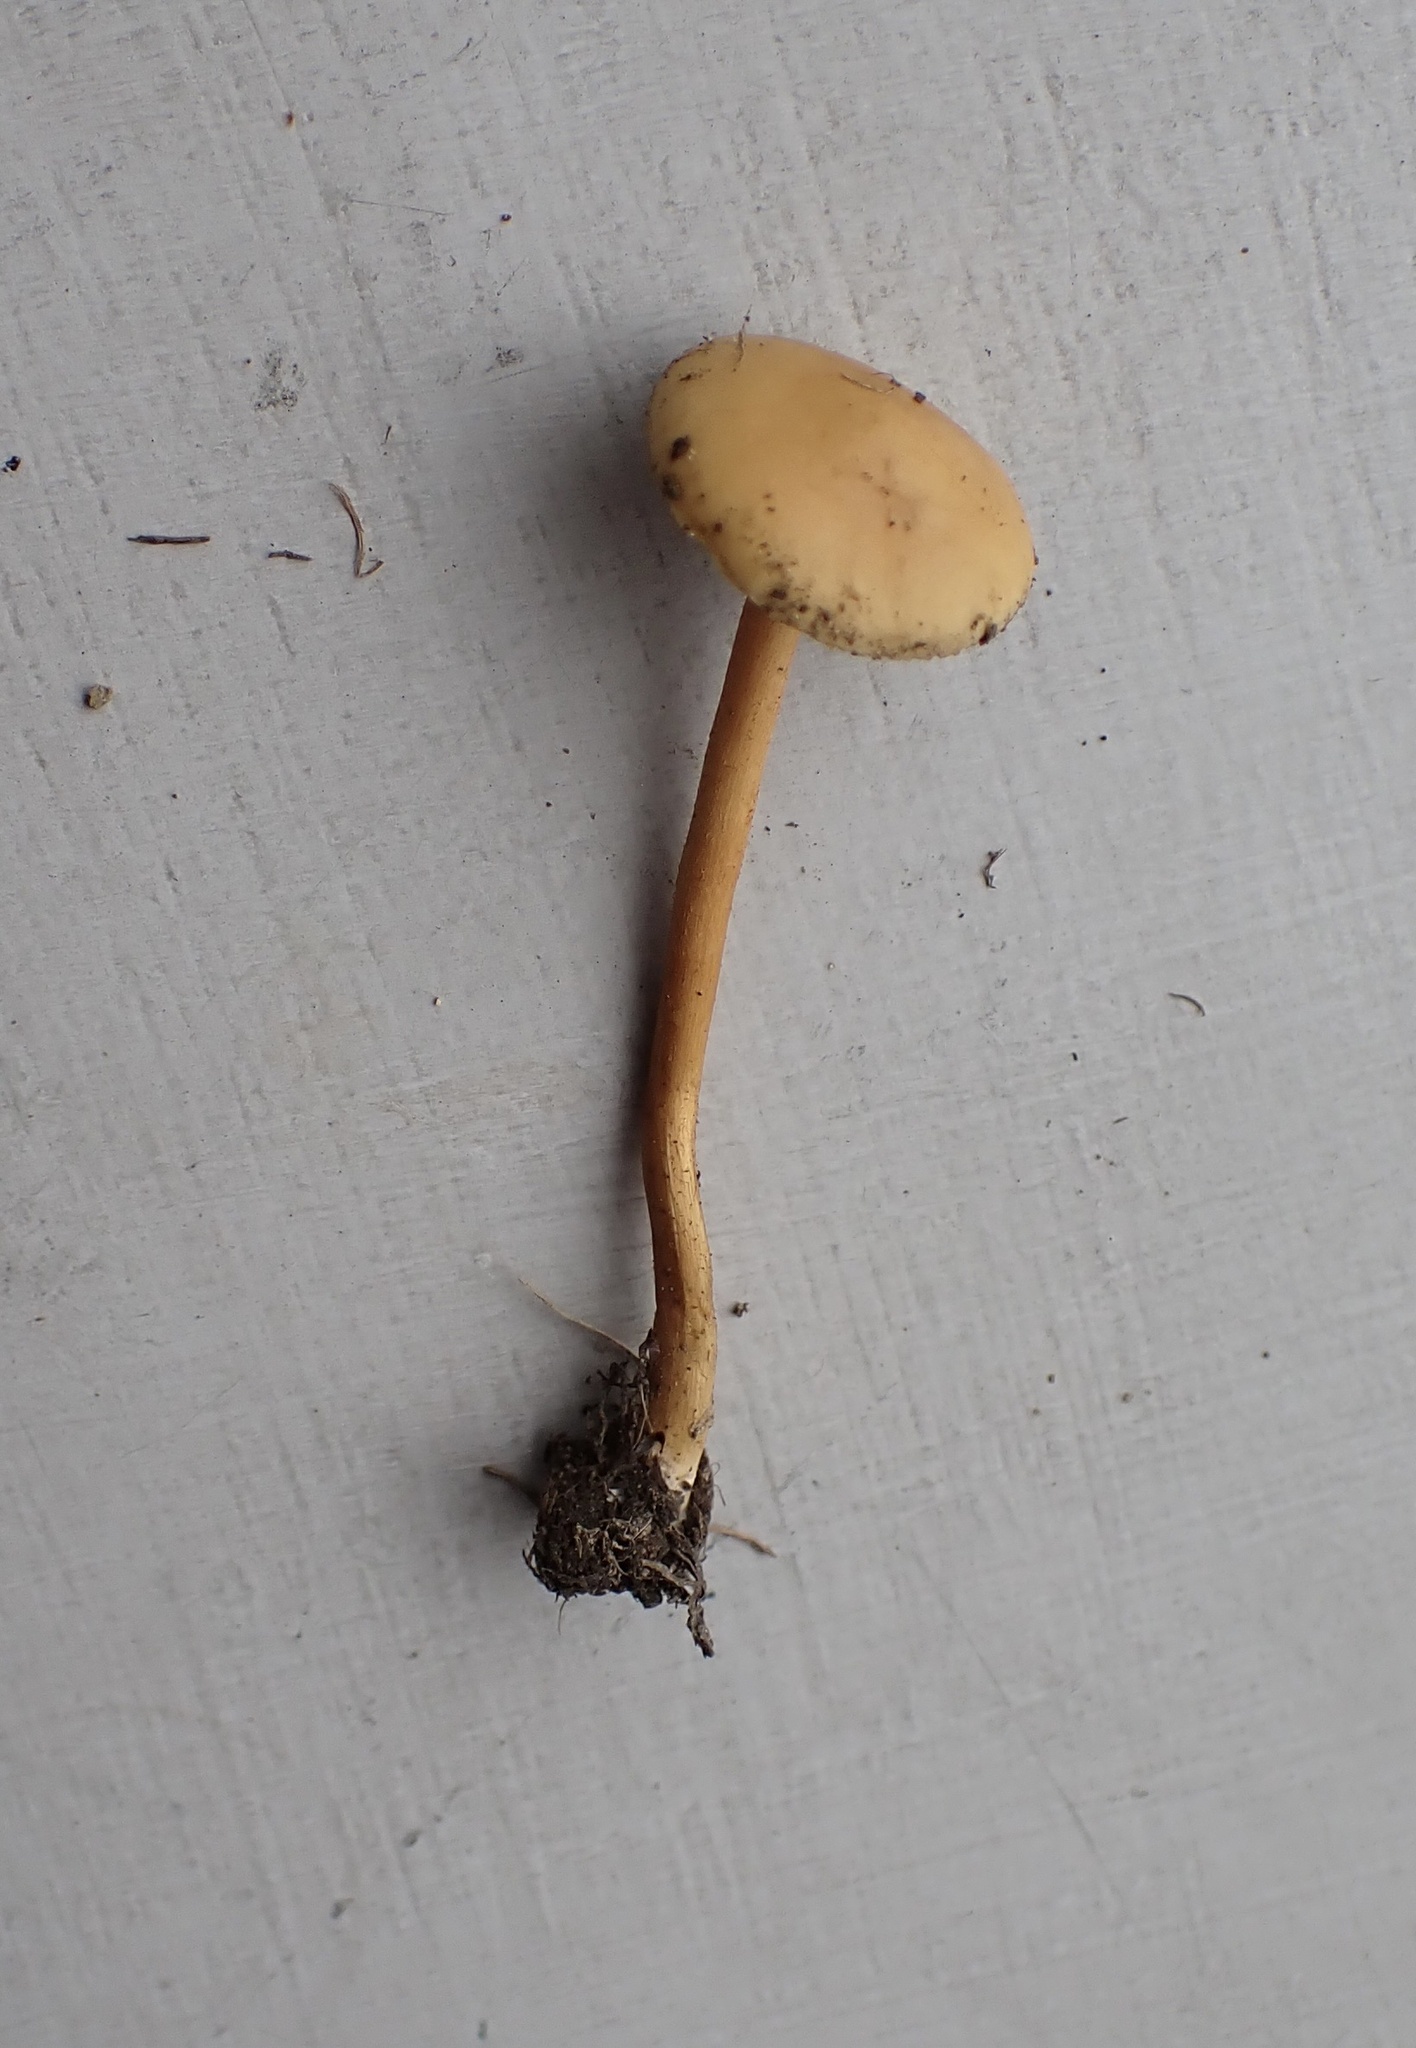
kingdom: Fungi
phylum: Basidiomycota
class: Agaricomycetes
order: Agaricales
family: Strophariaceae
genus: Agrocybe
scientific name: Agrocybe pediades
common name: Common fieldcap
